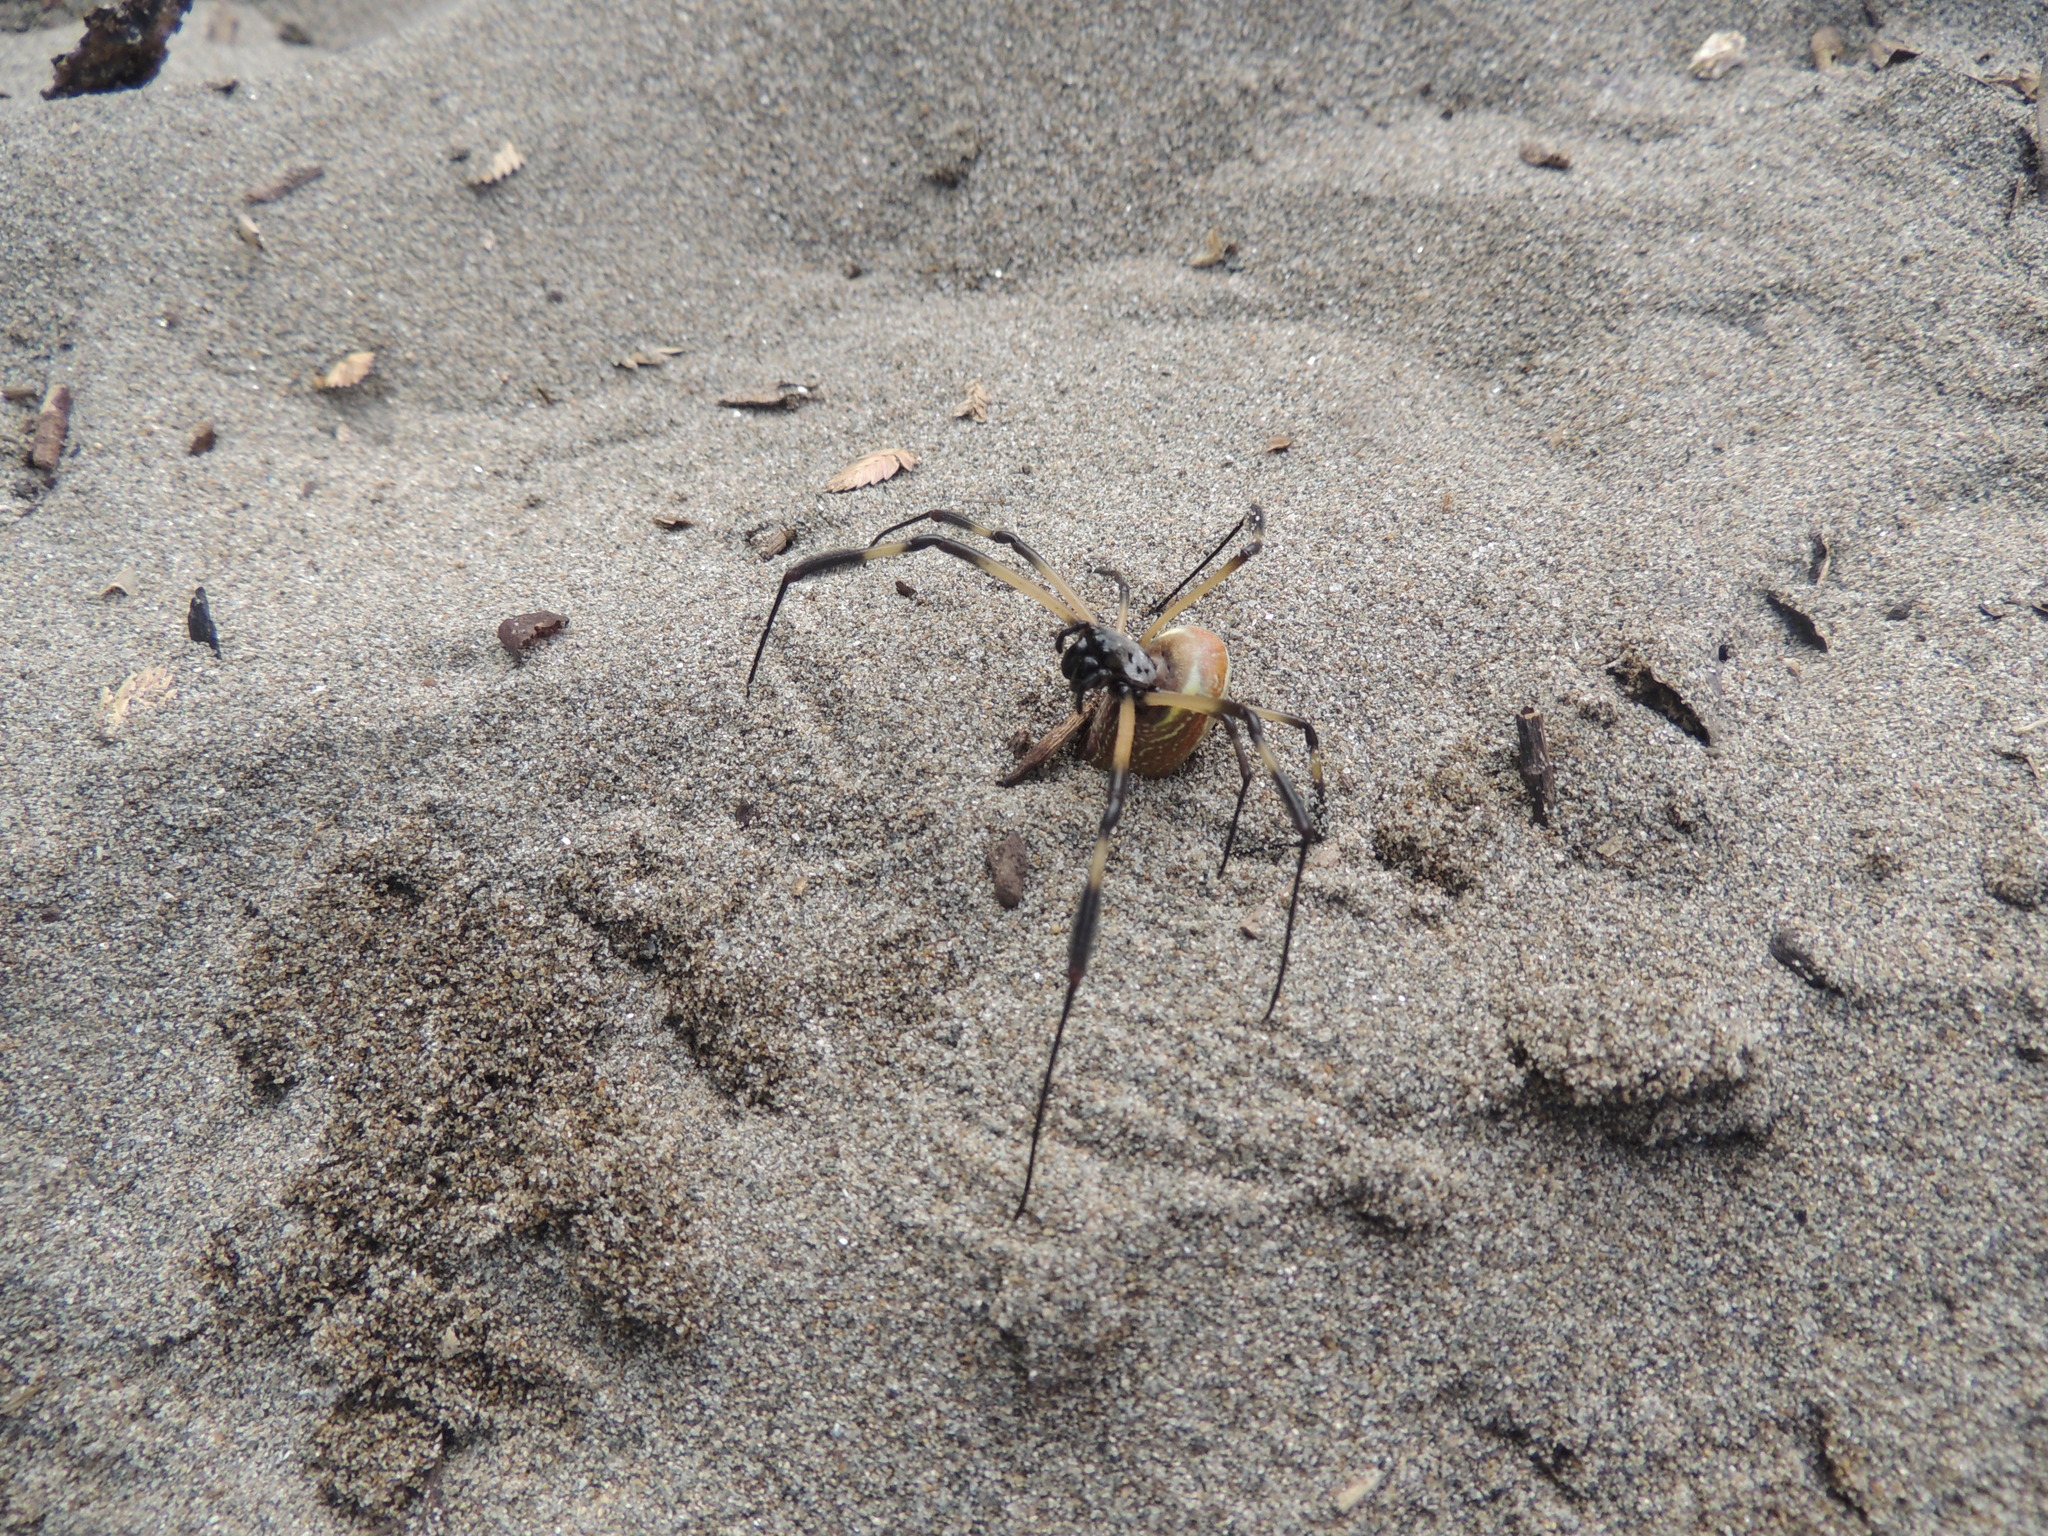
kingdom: Animalia
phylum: Arthropoda
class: Arachnida
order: Araneae
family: Araneidae
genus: Trichonephila
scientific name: Trichonephila clavipes
